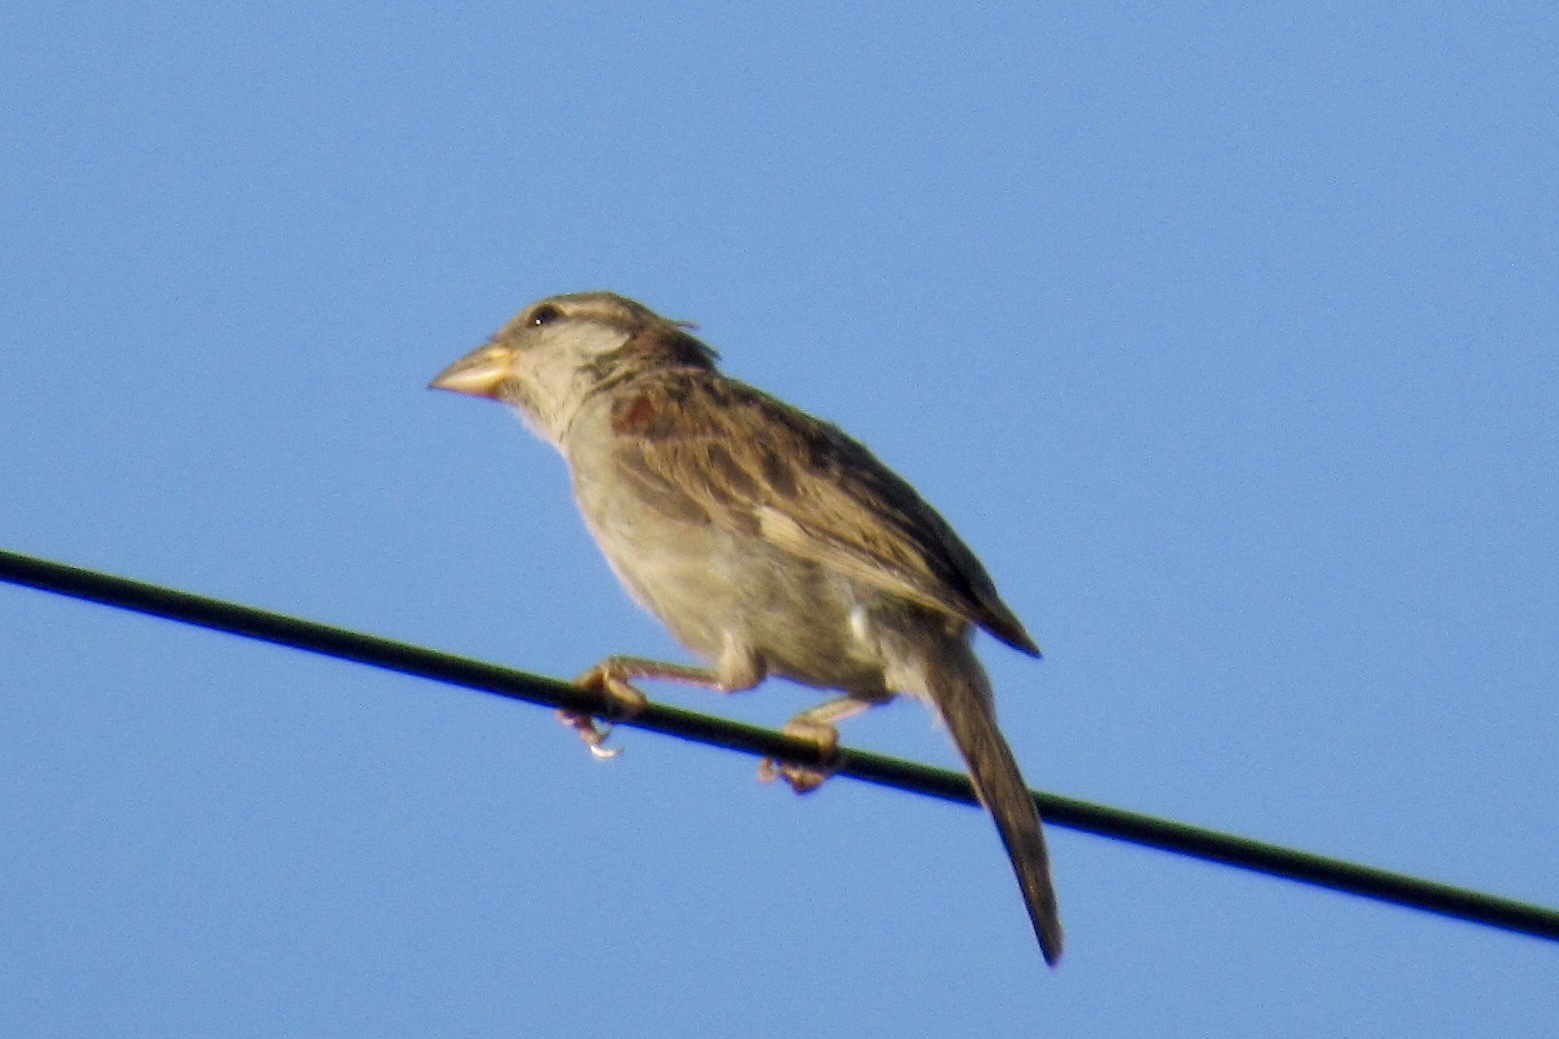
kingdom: Animalia
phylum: Chordata
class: Aves
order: Passeriformes
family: Passeridae
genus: Passer
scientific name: Passer domesticus
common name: House sparrow
